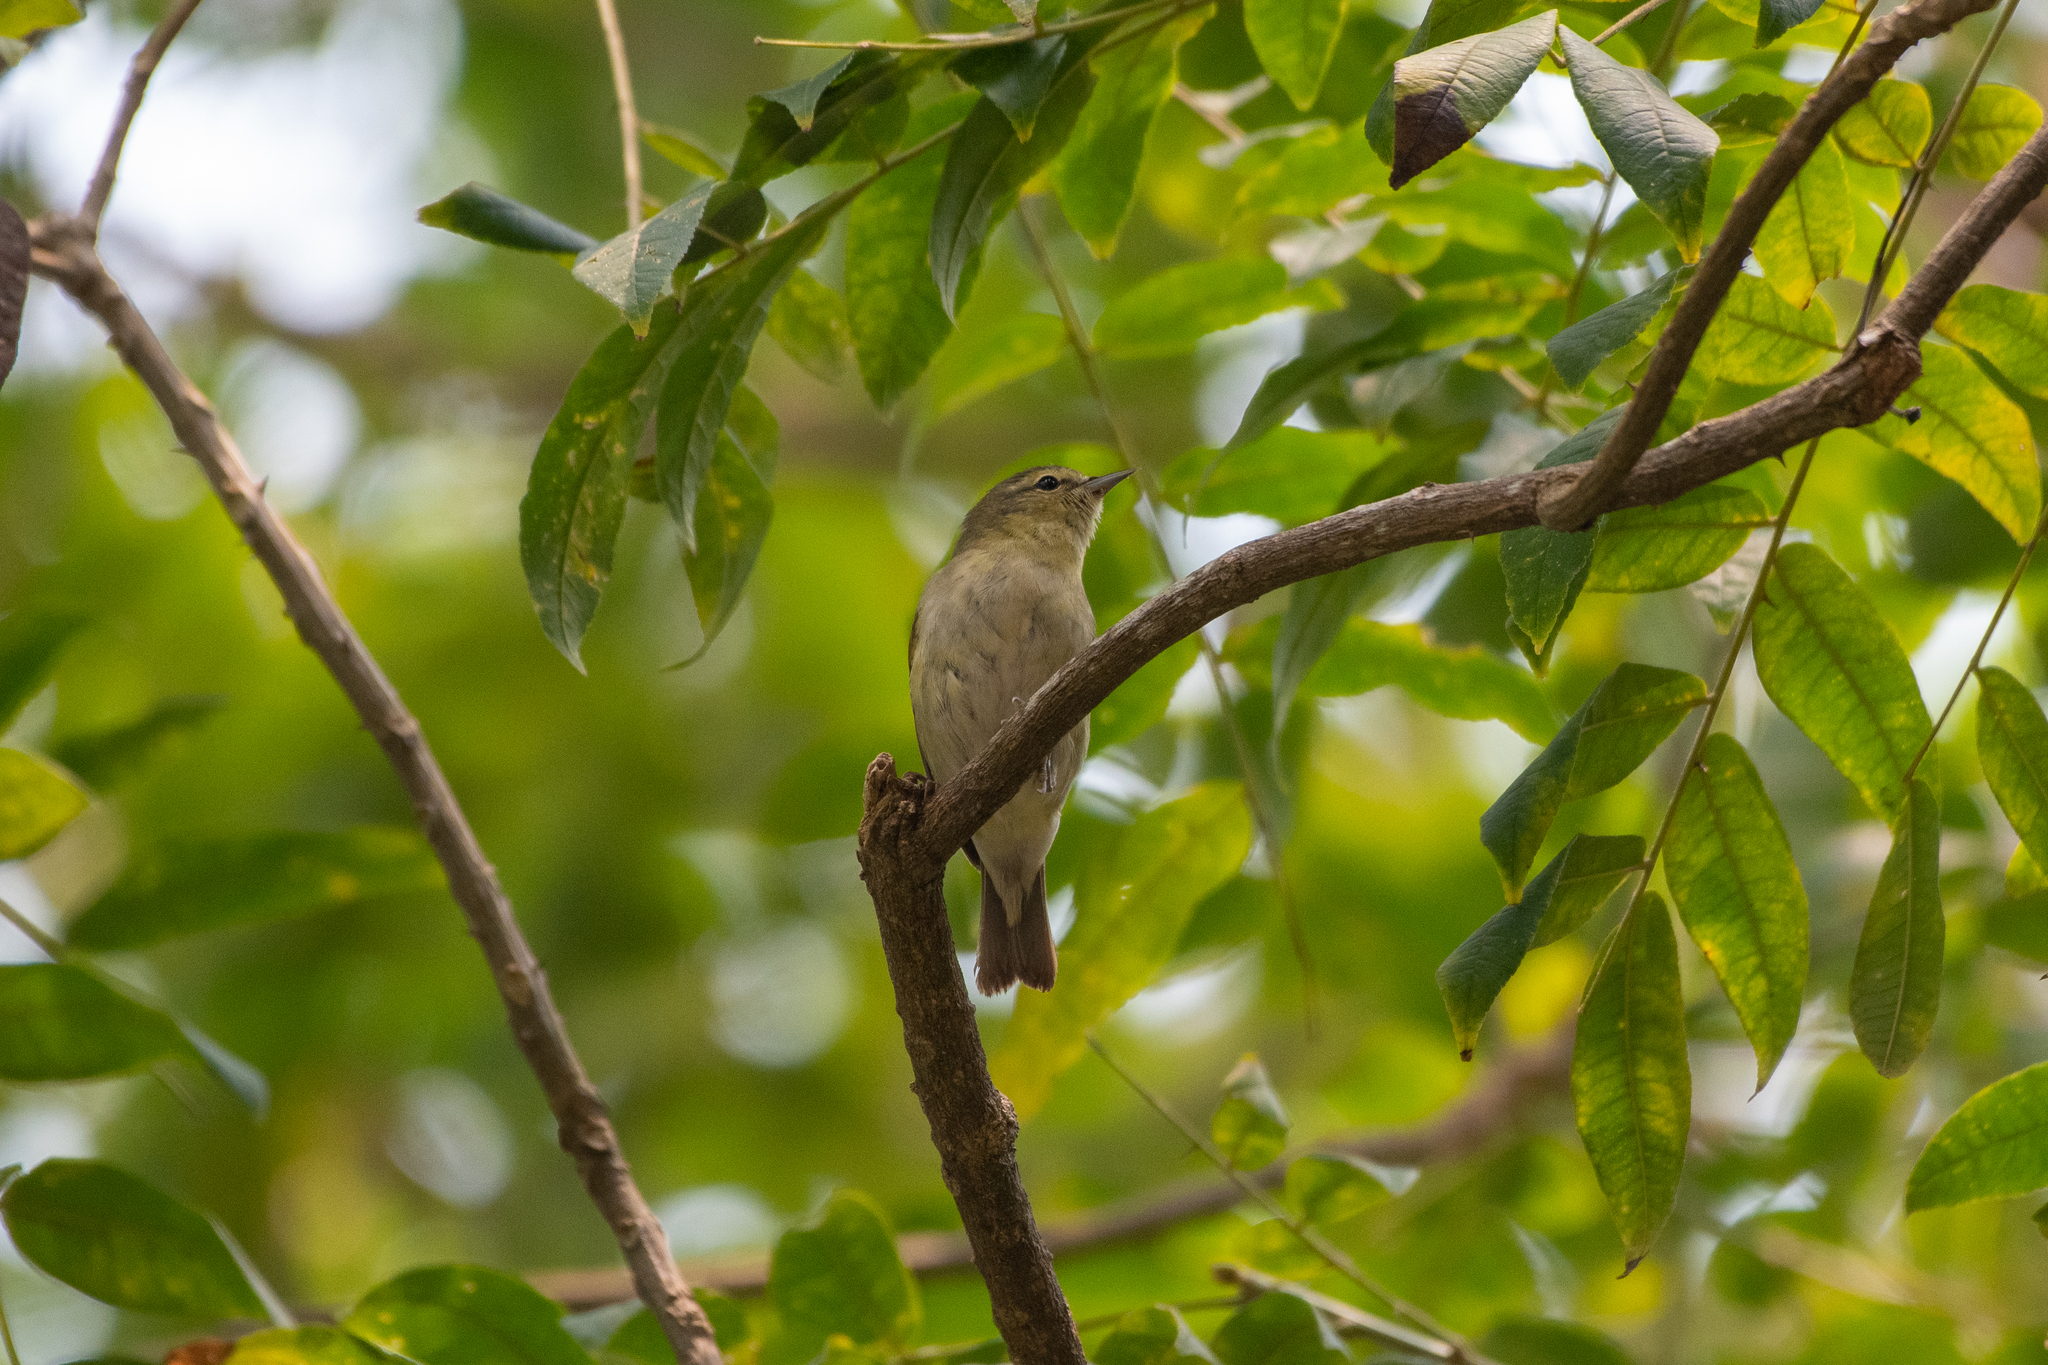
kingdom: Animalia
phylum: Chordata
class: Aves
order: Passeriformes
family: Parulidae
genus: Leiothlypis
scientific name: Leiothlypis peregrina
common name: Tennessee warbler
